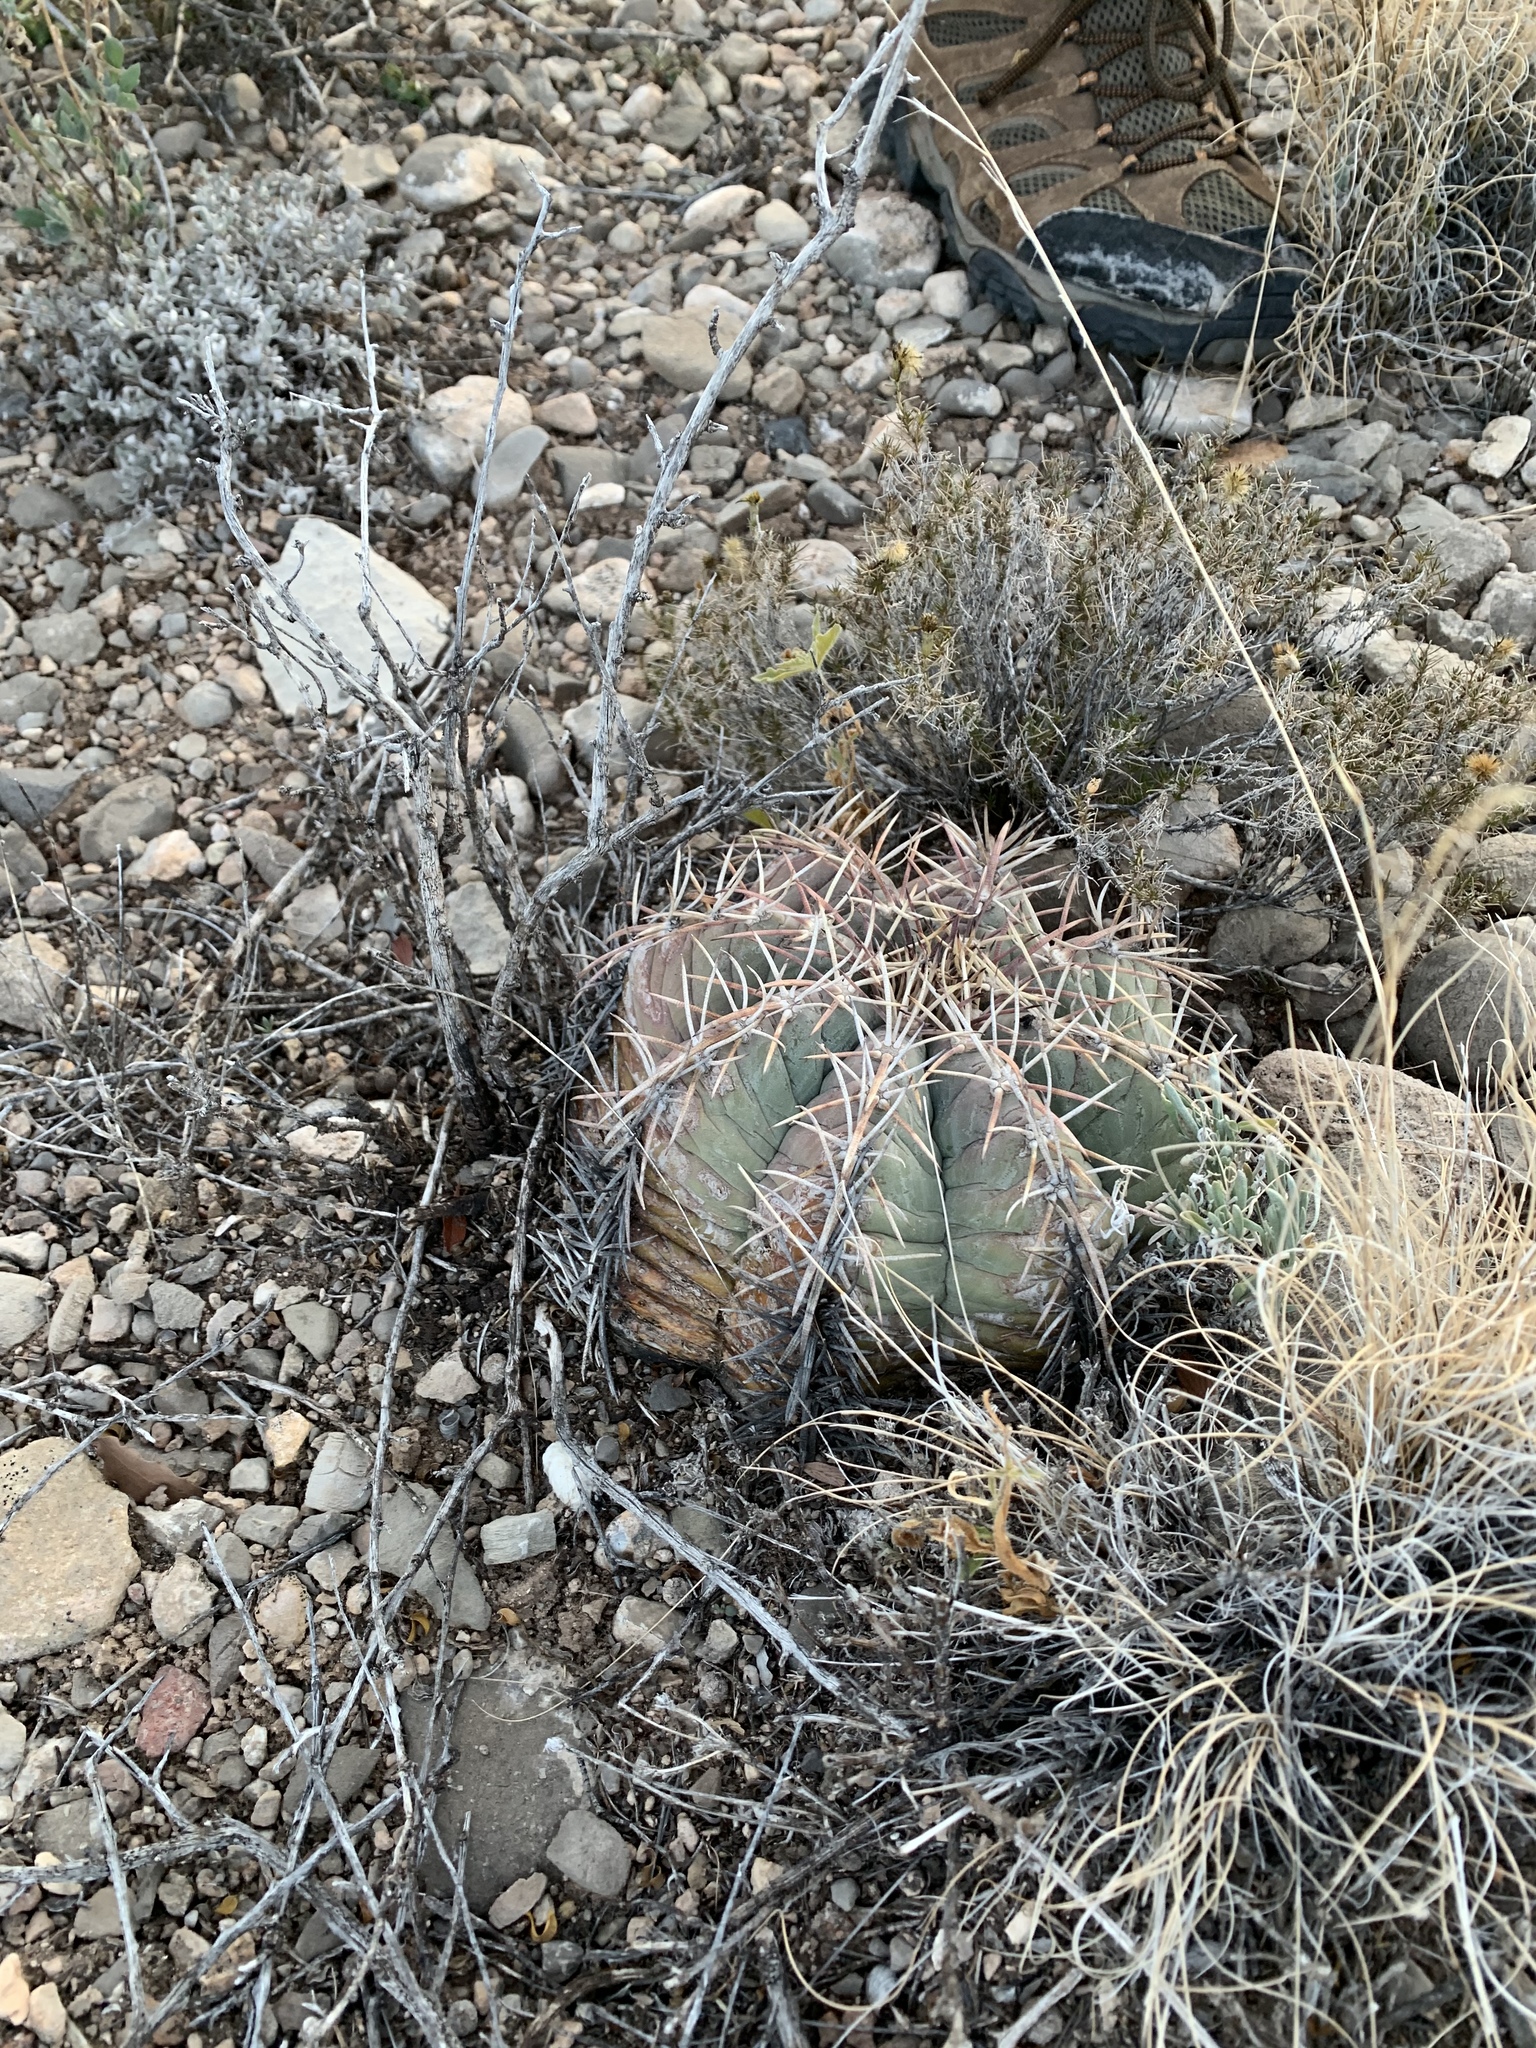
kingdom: Plantae
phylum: Tracheophyta
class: Magnoliopsida
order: Caryophyllales
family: Cactaceae
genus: Echinocactus
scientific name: Echinocactus horizonthalonius
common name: Devilshead
